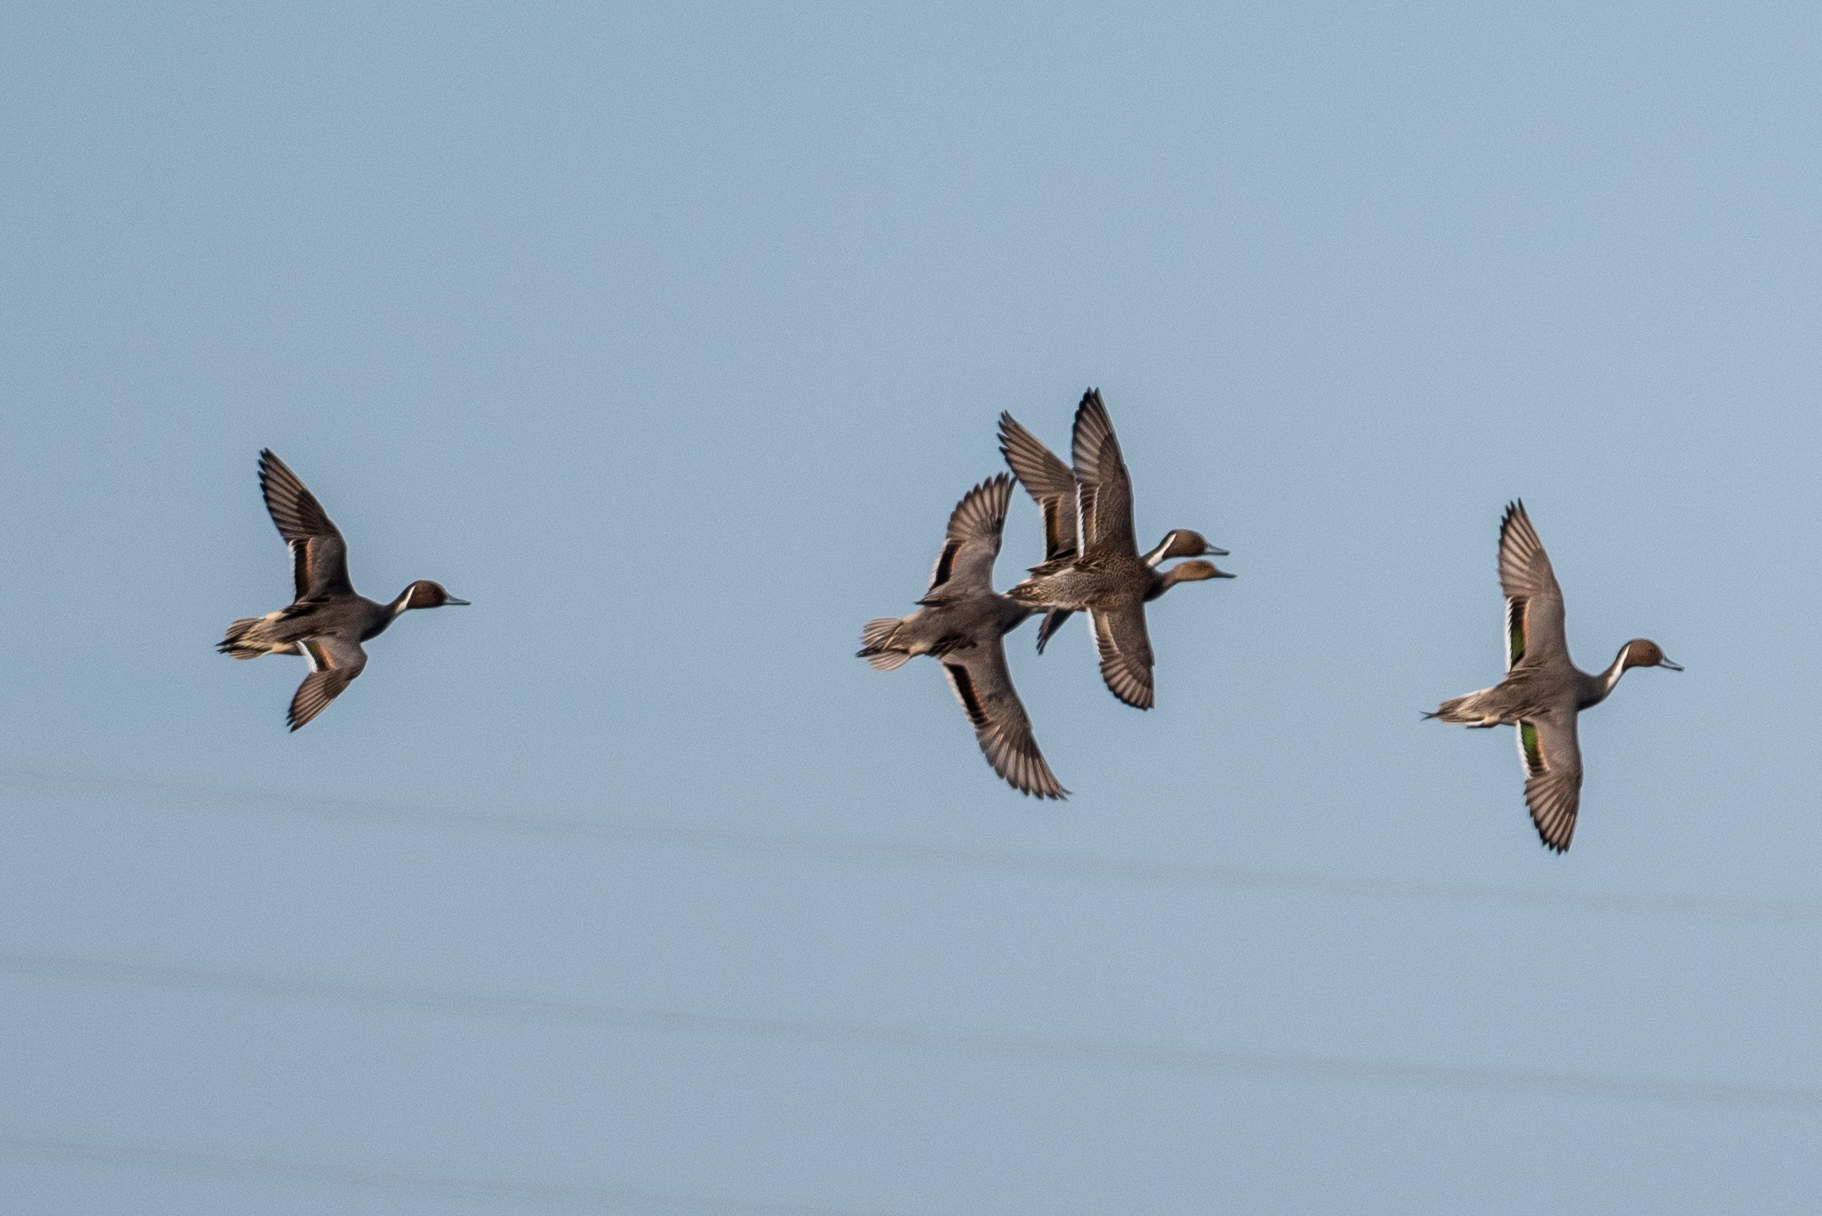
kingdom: Animalia
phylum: Chordata
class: Aves
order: Anseriformes
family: Anatidae
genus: Anas
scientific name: Anas acuta
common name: Northern pintail
